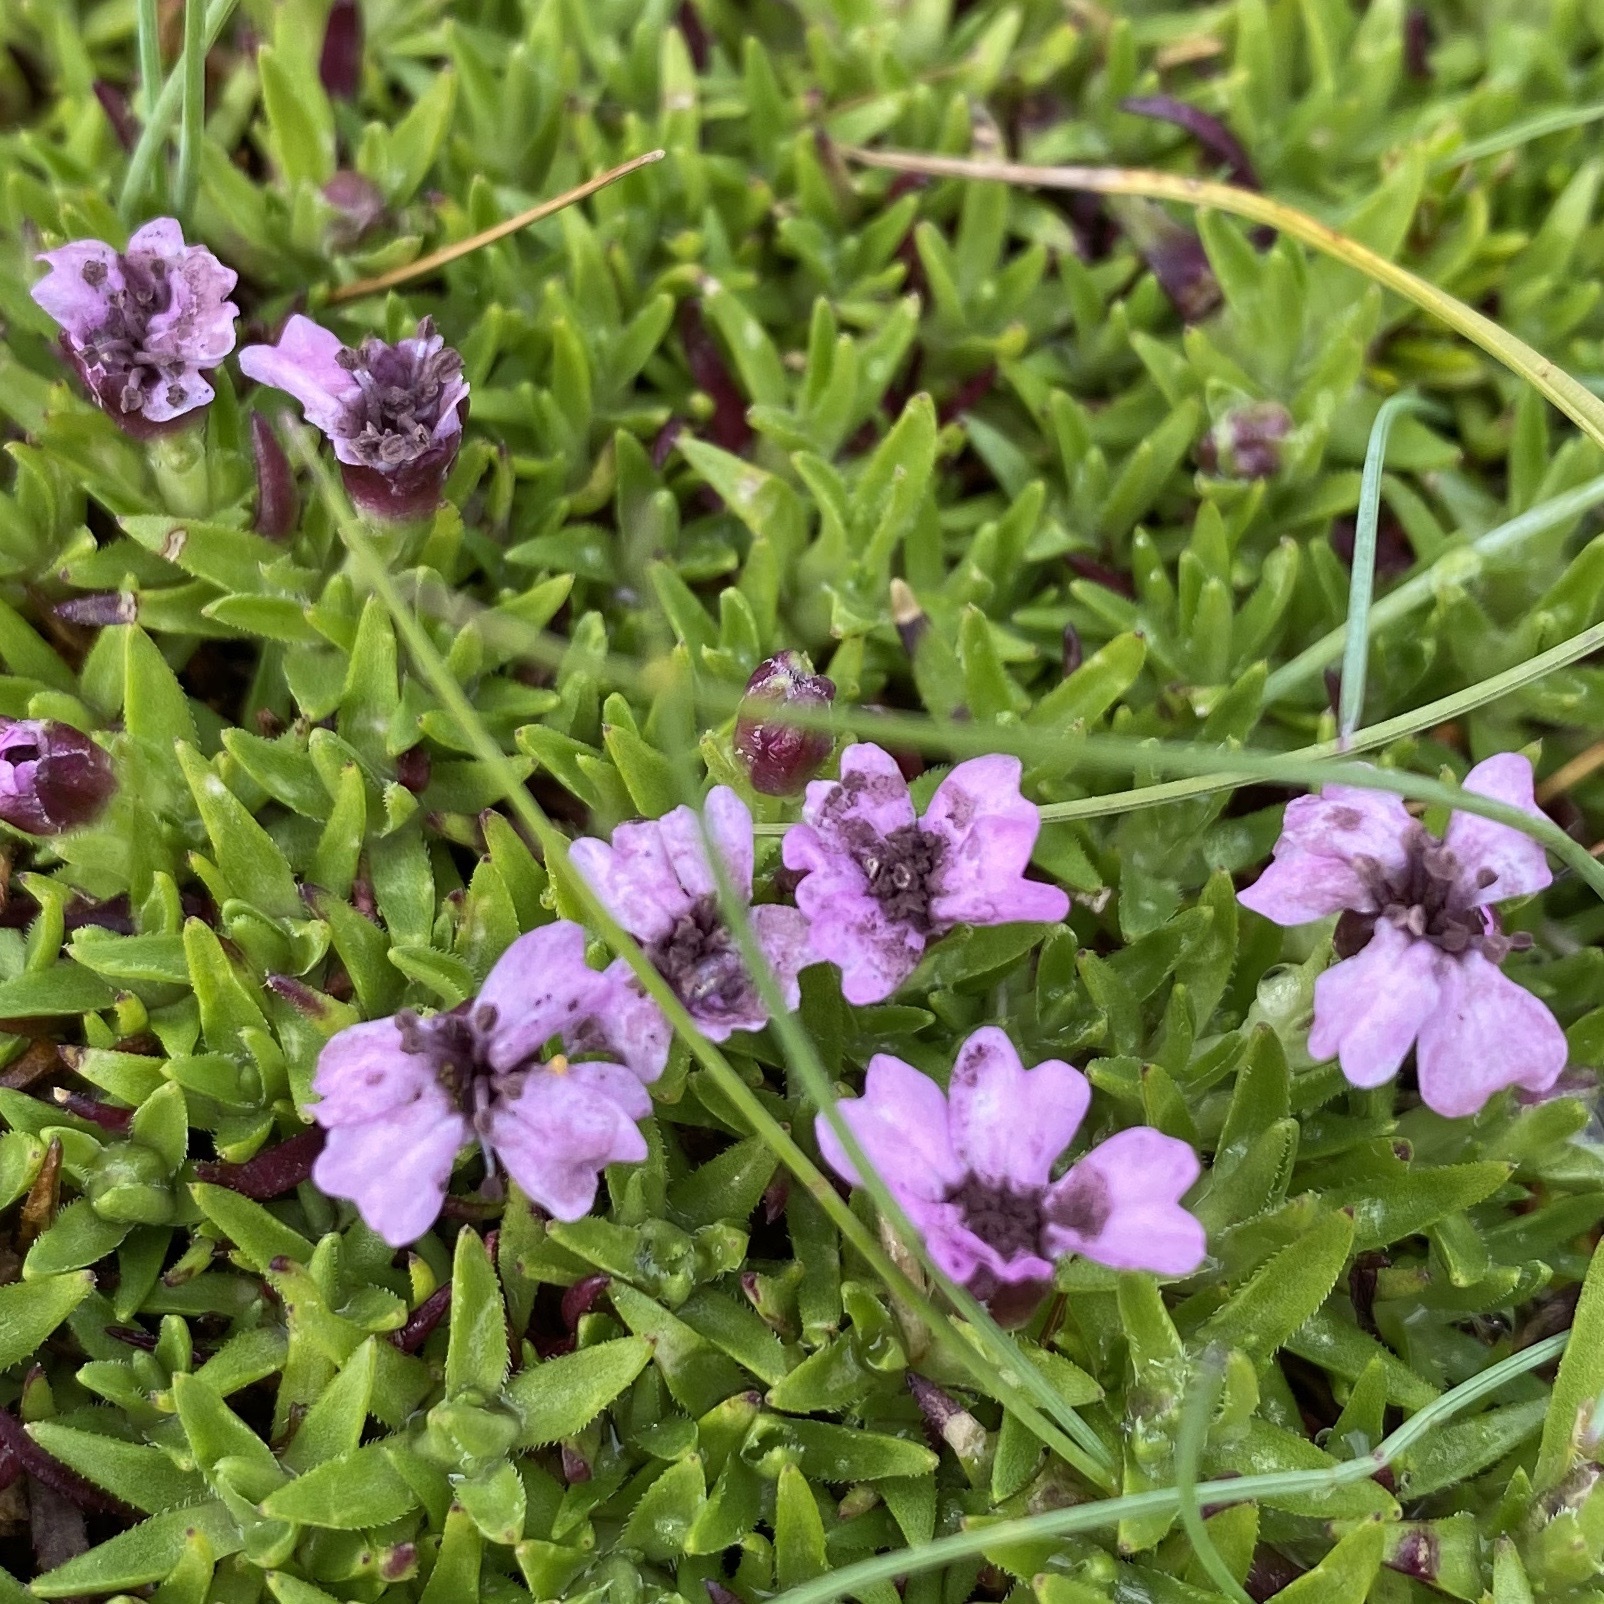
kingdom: Plantae
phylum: Tracheophyta
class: Magnoliopsida
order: Caryophyllales
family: Caryophyllaceae
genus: Silene
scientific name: Silene acaulis
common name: Moss campion
